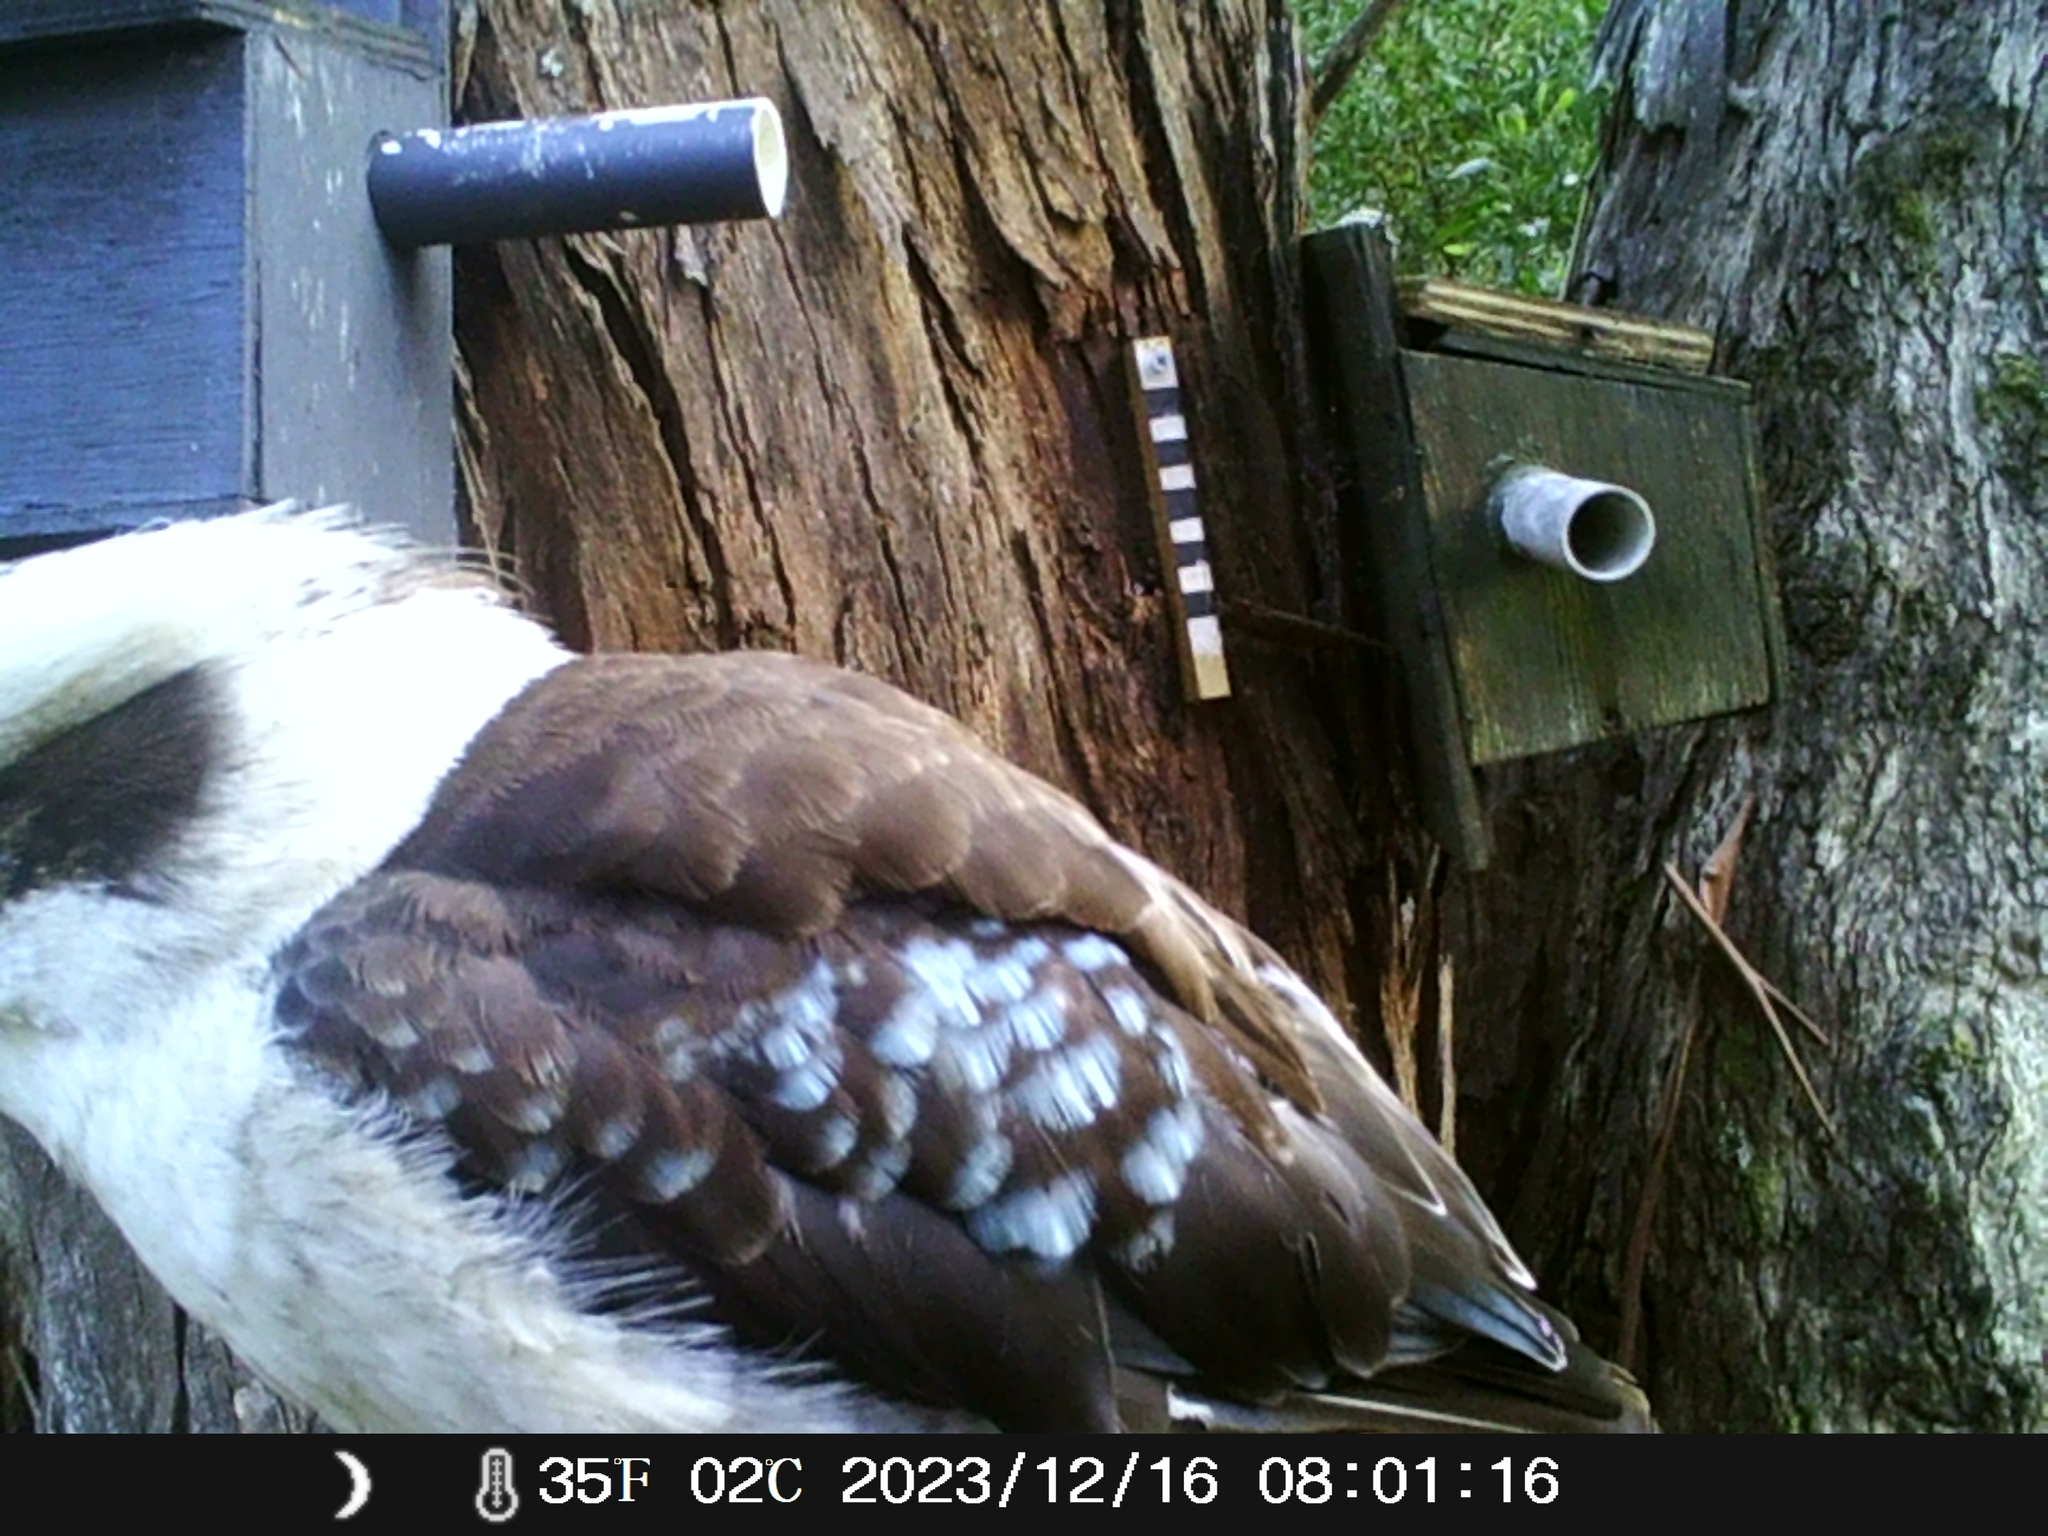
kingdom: Animalia
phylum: Chordata
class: Aves
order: Coraciiformes
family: Alcedinidae
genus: Dacelo
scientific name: Dacelo novaeguineae
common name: Laughing kookaburra
